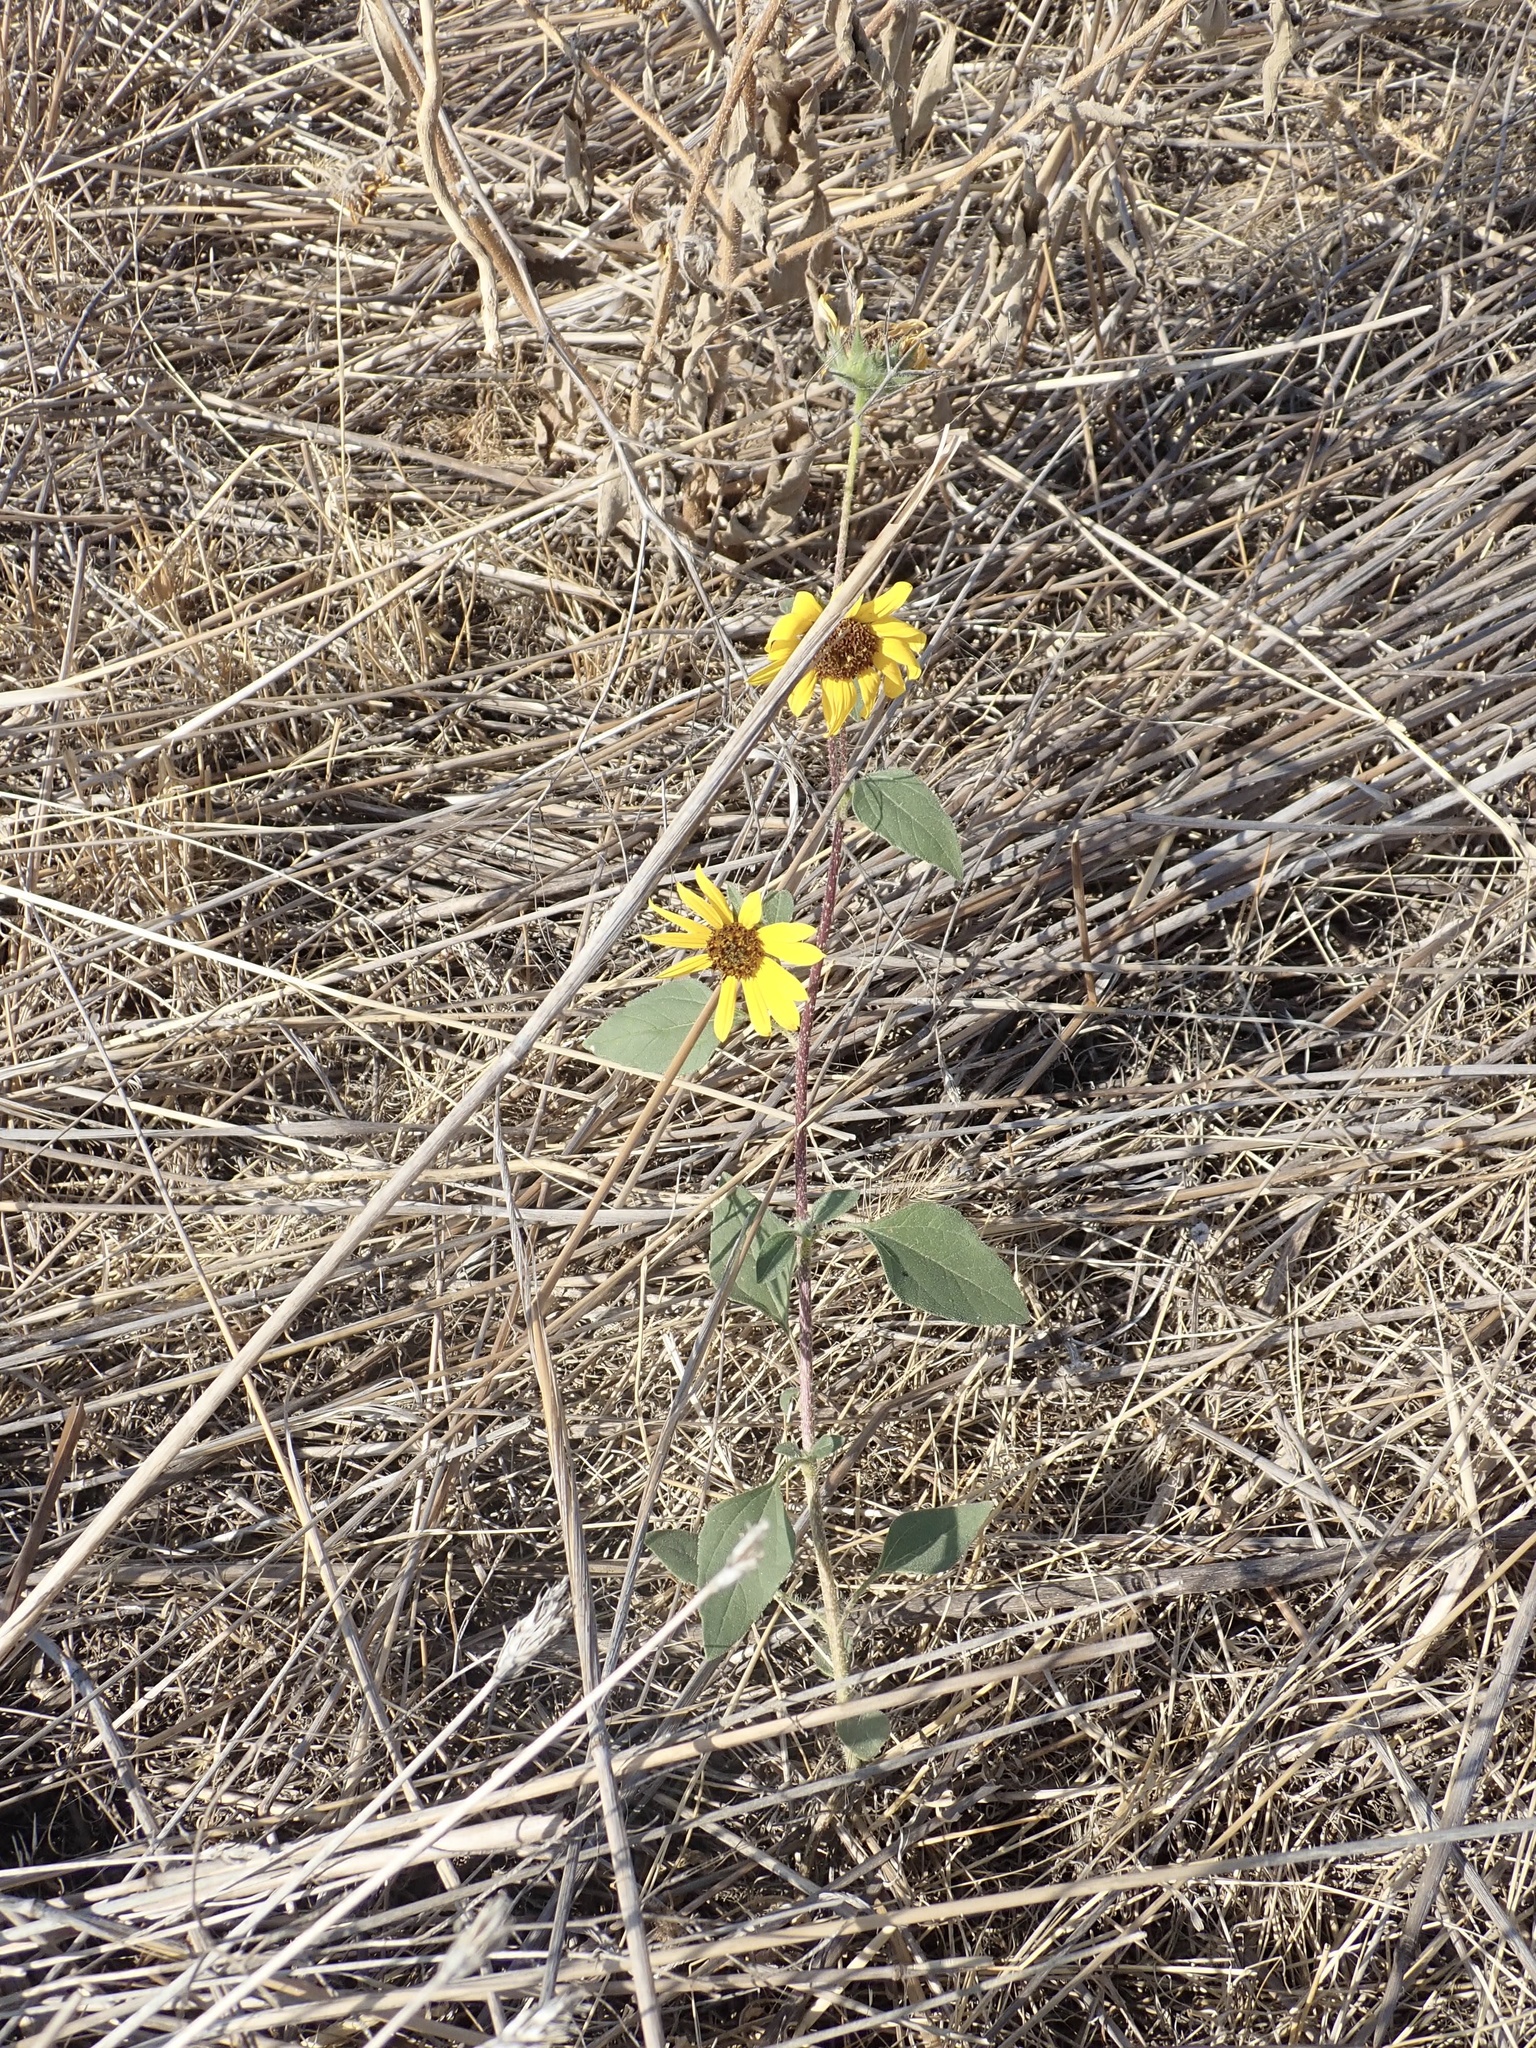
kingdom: Plantae
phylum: Tracheophyta
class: Magnoliopsida
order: Asterales
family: Asteraceae
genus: Helianthus
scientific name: Helianthus annuus
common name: Sunflower
